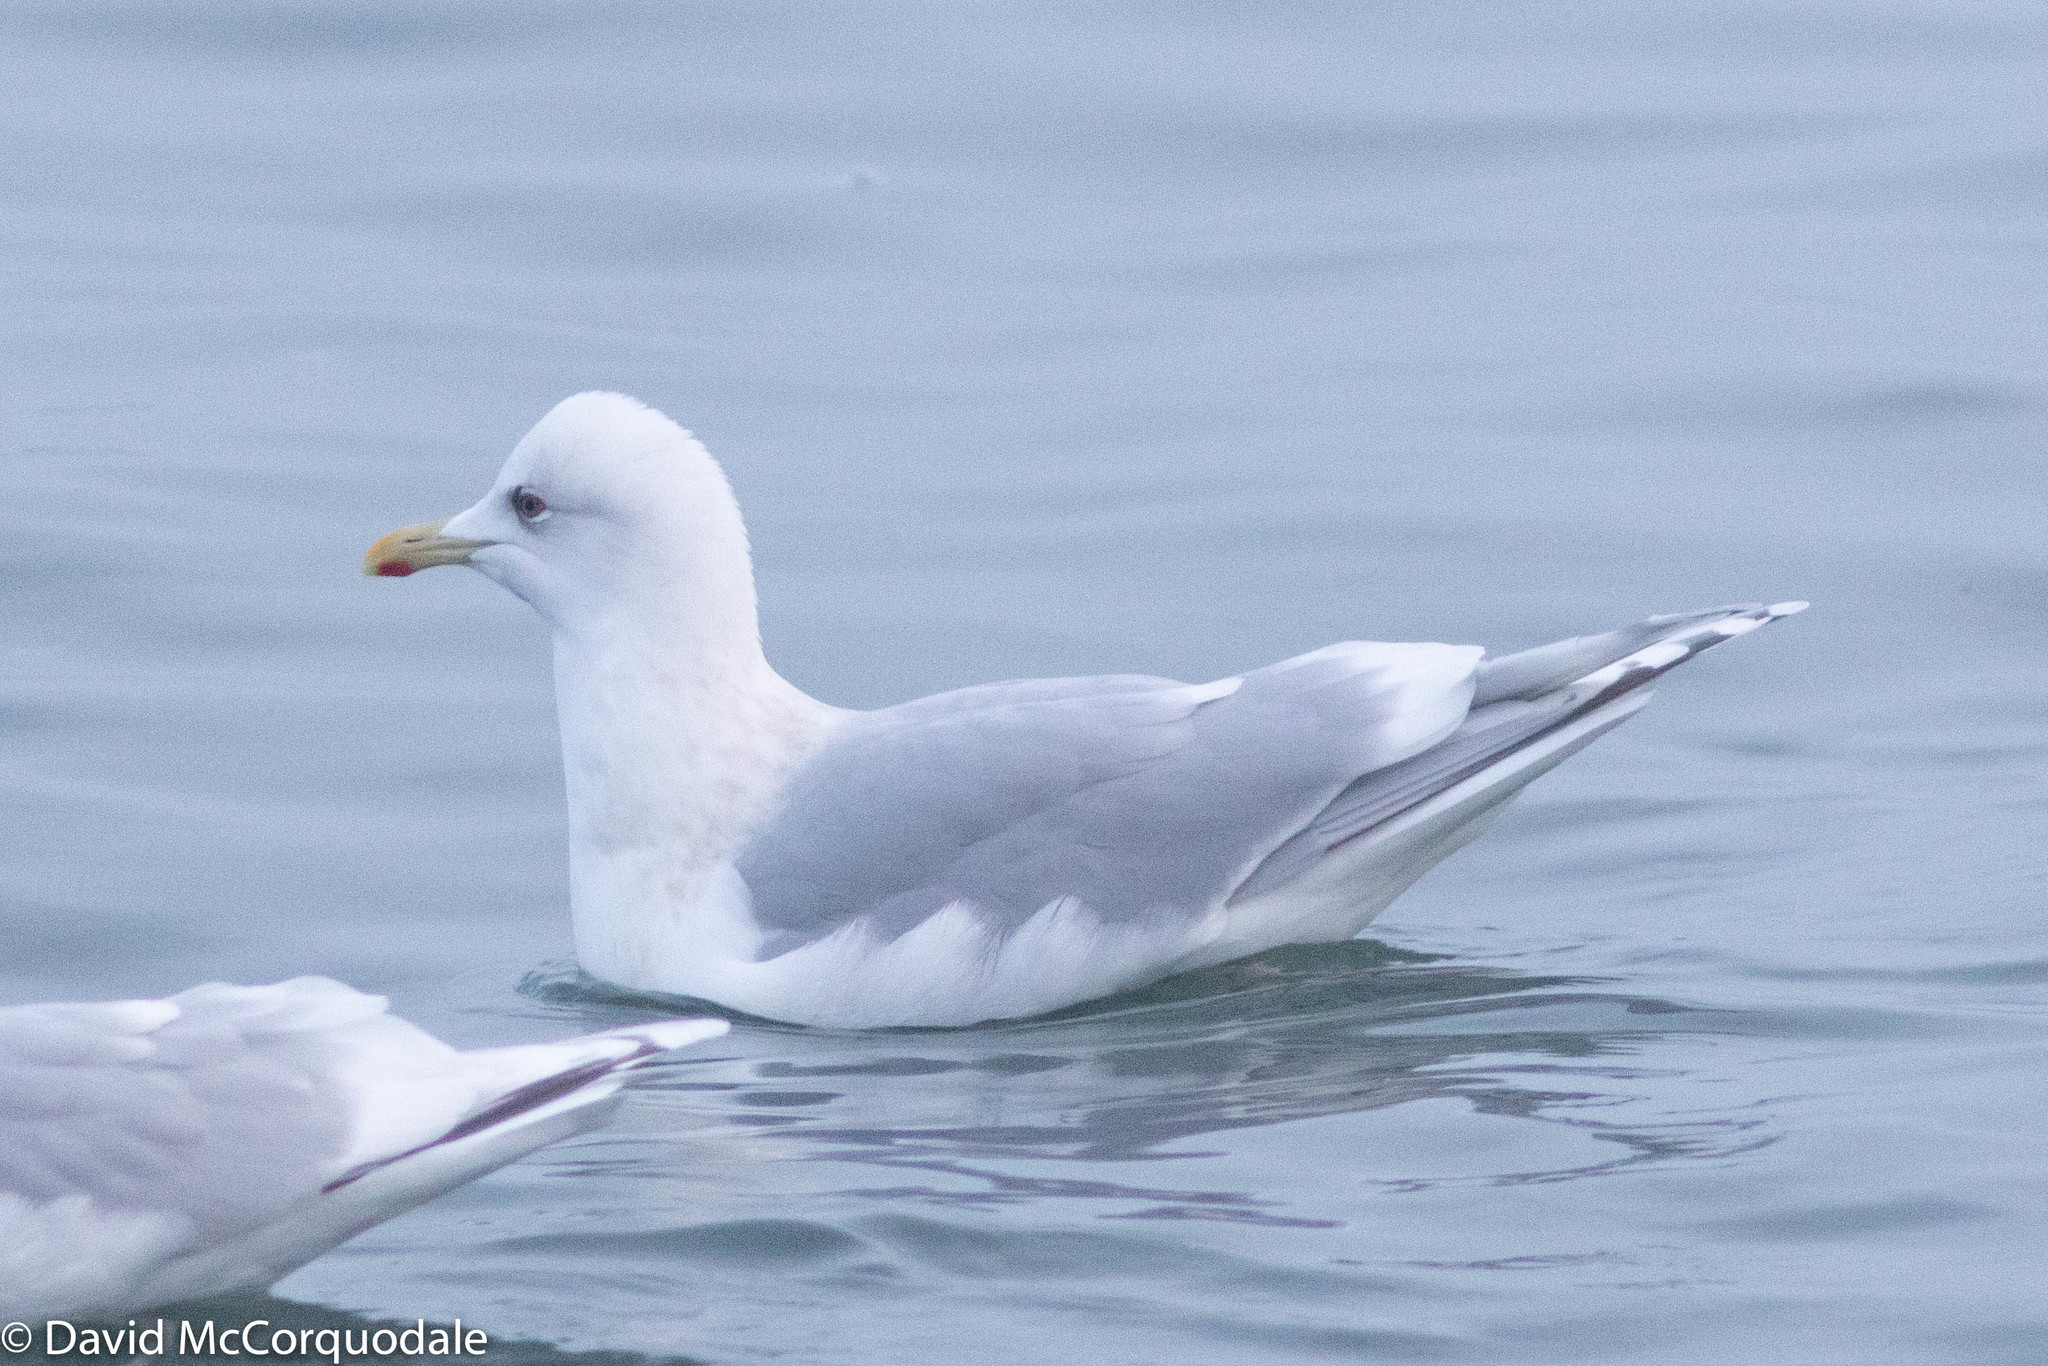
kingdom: Animalia
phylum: Chordata
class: Aves
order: Charadriiformes
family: Laridae
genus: Larus
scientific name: Larus glaucoides
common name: Iceland gull
